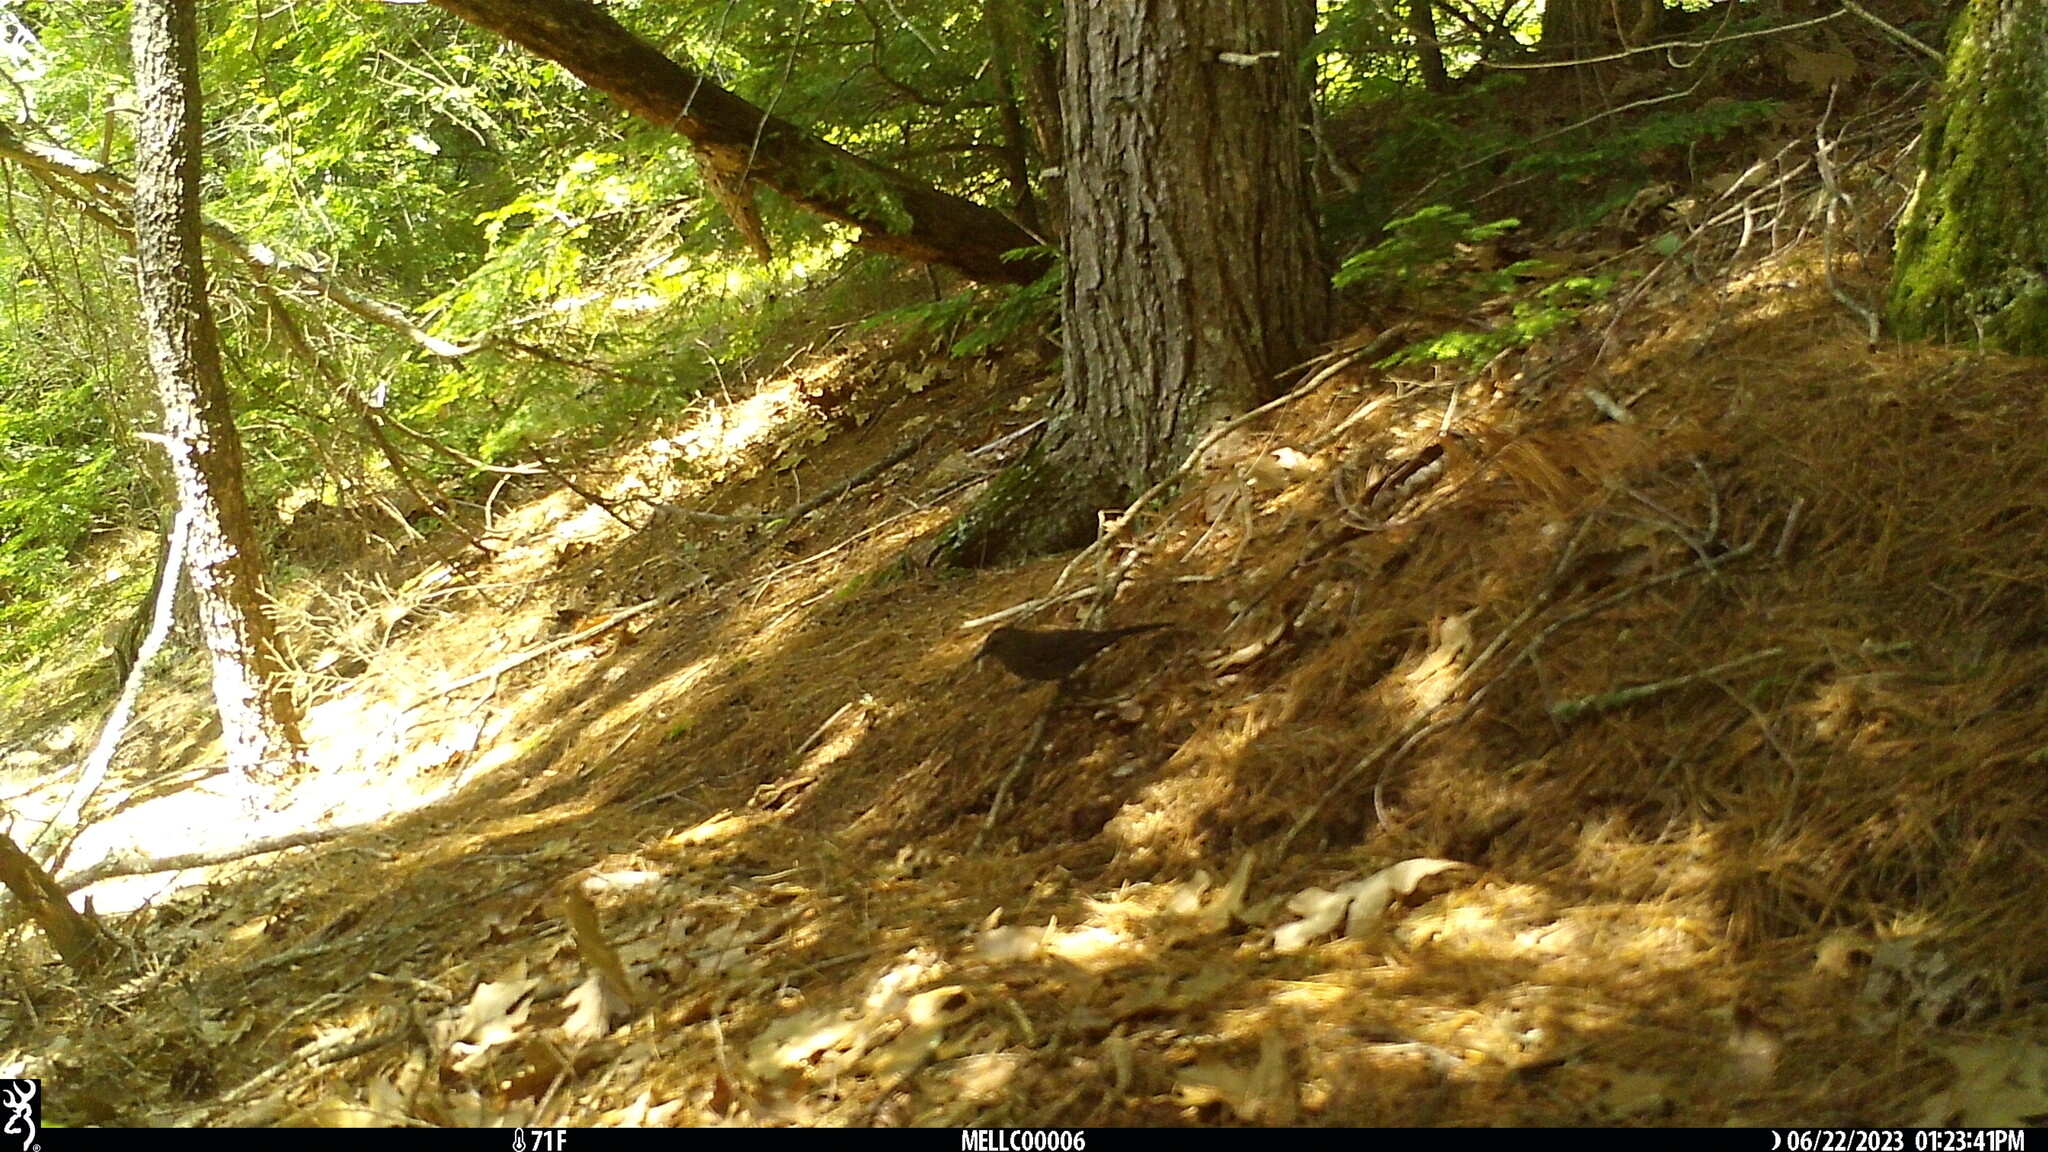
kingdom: Animalia
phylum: Chordata
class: Aves
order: Passeriformes
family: Mimidae
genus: Dumetella
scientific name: Dumetella carolinensis
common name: Gray catbird
